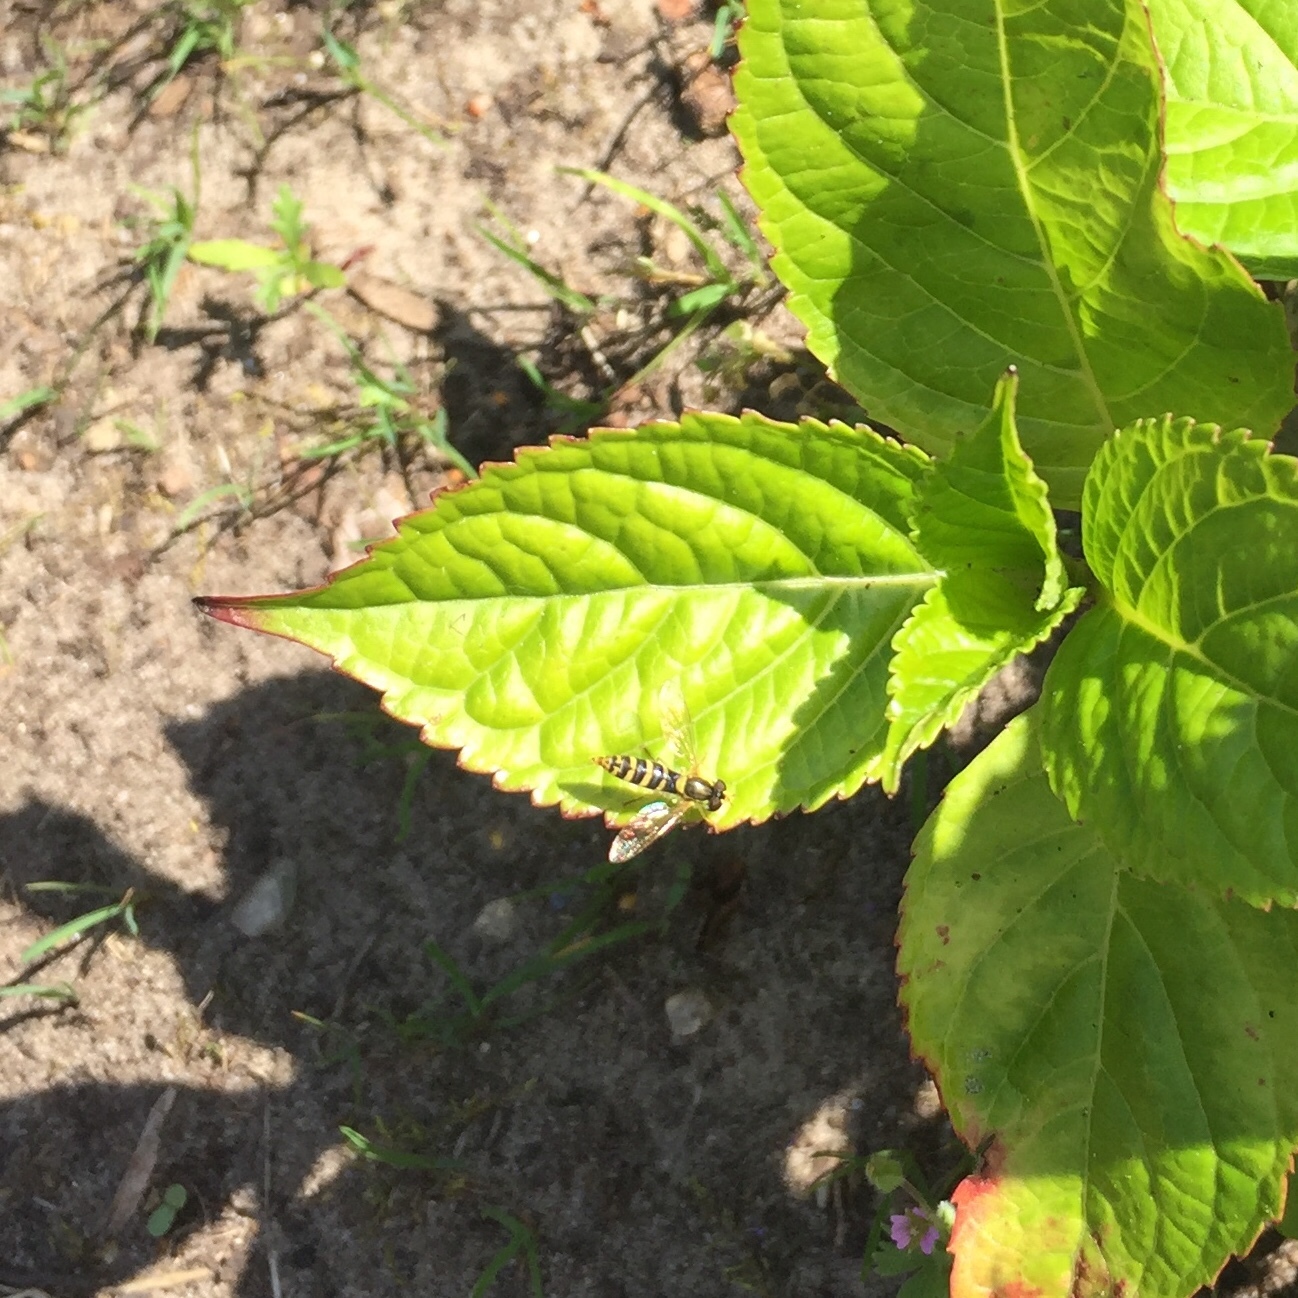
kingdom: Animalia
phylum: Arthropoda
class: Insecta
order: Diptera
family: Syrphidae
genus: Sphaerophoria
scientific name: Sphaerophoria
